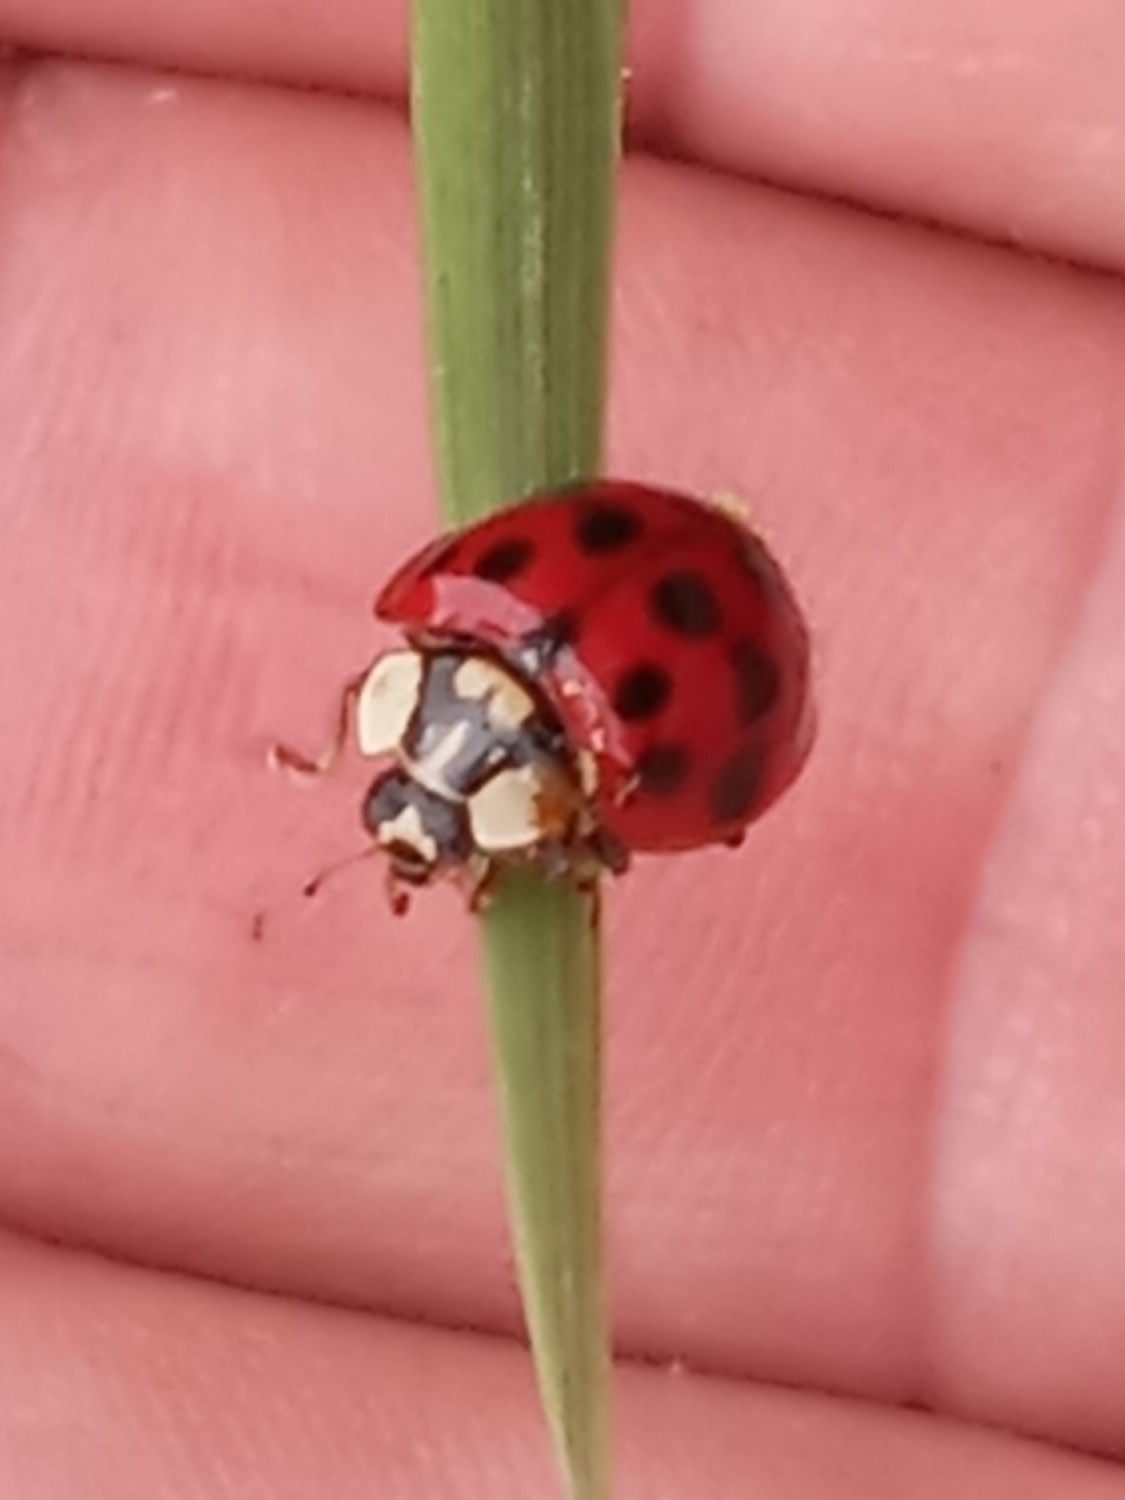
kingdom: Animalia
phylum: Arthropoda
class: Insecta
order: Coleoptera
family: Coccinellidae
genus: Harmonia
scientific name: Harmonia axyridis
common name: Harlequin ladybird
